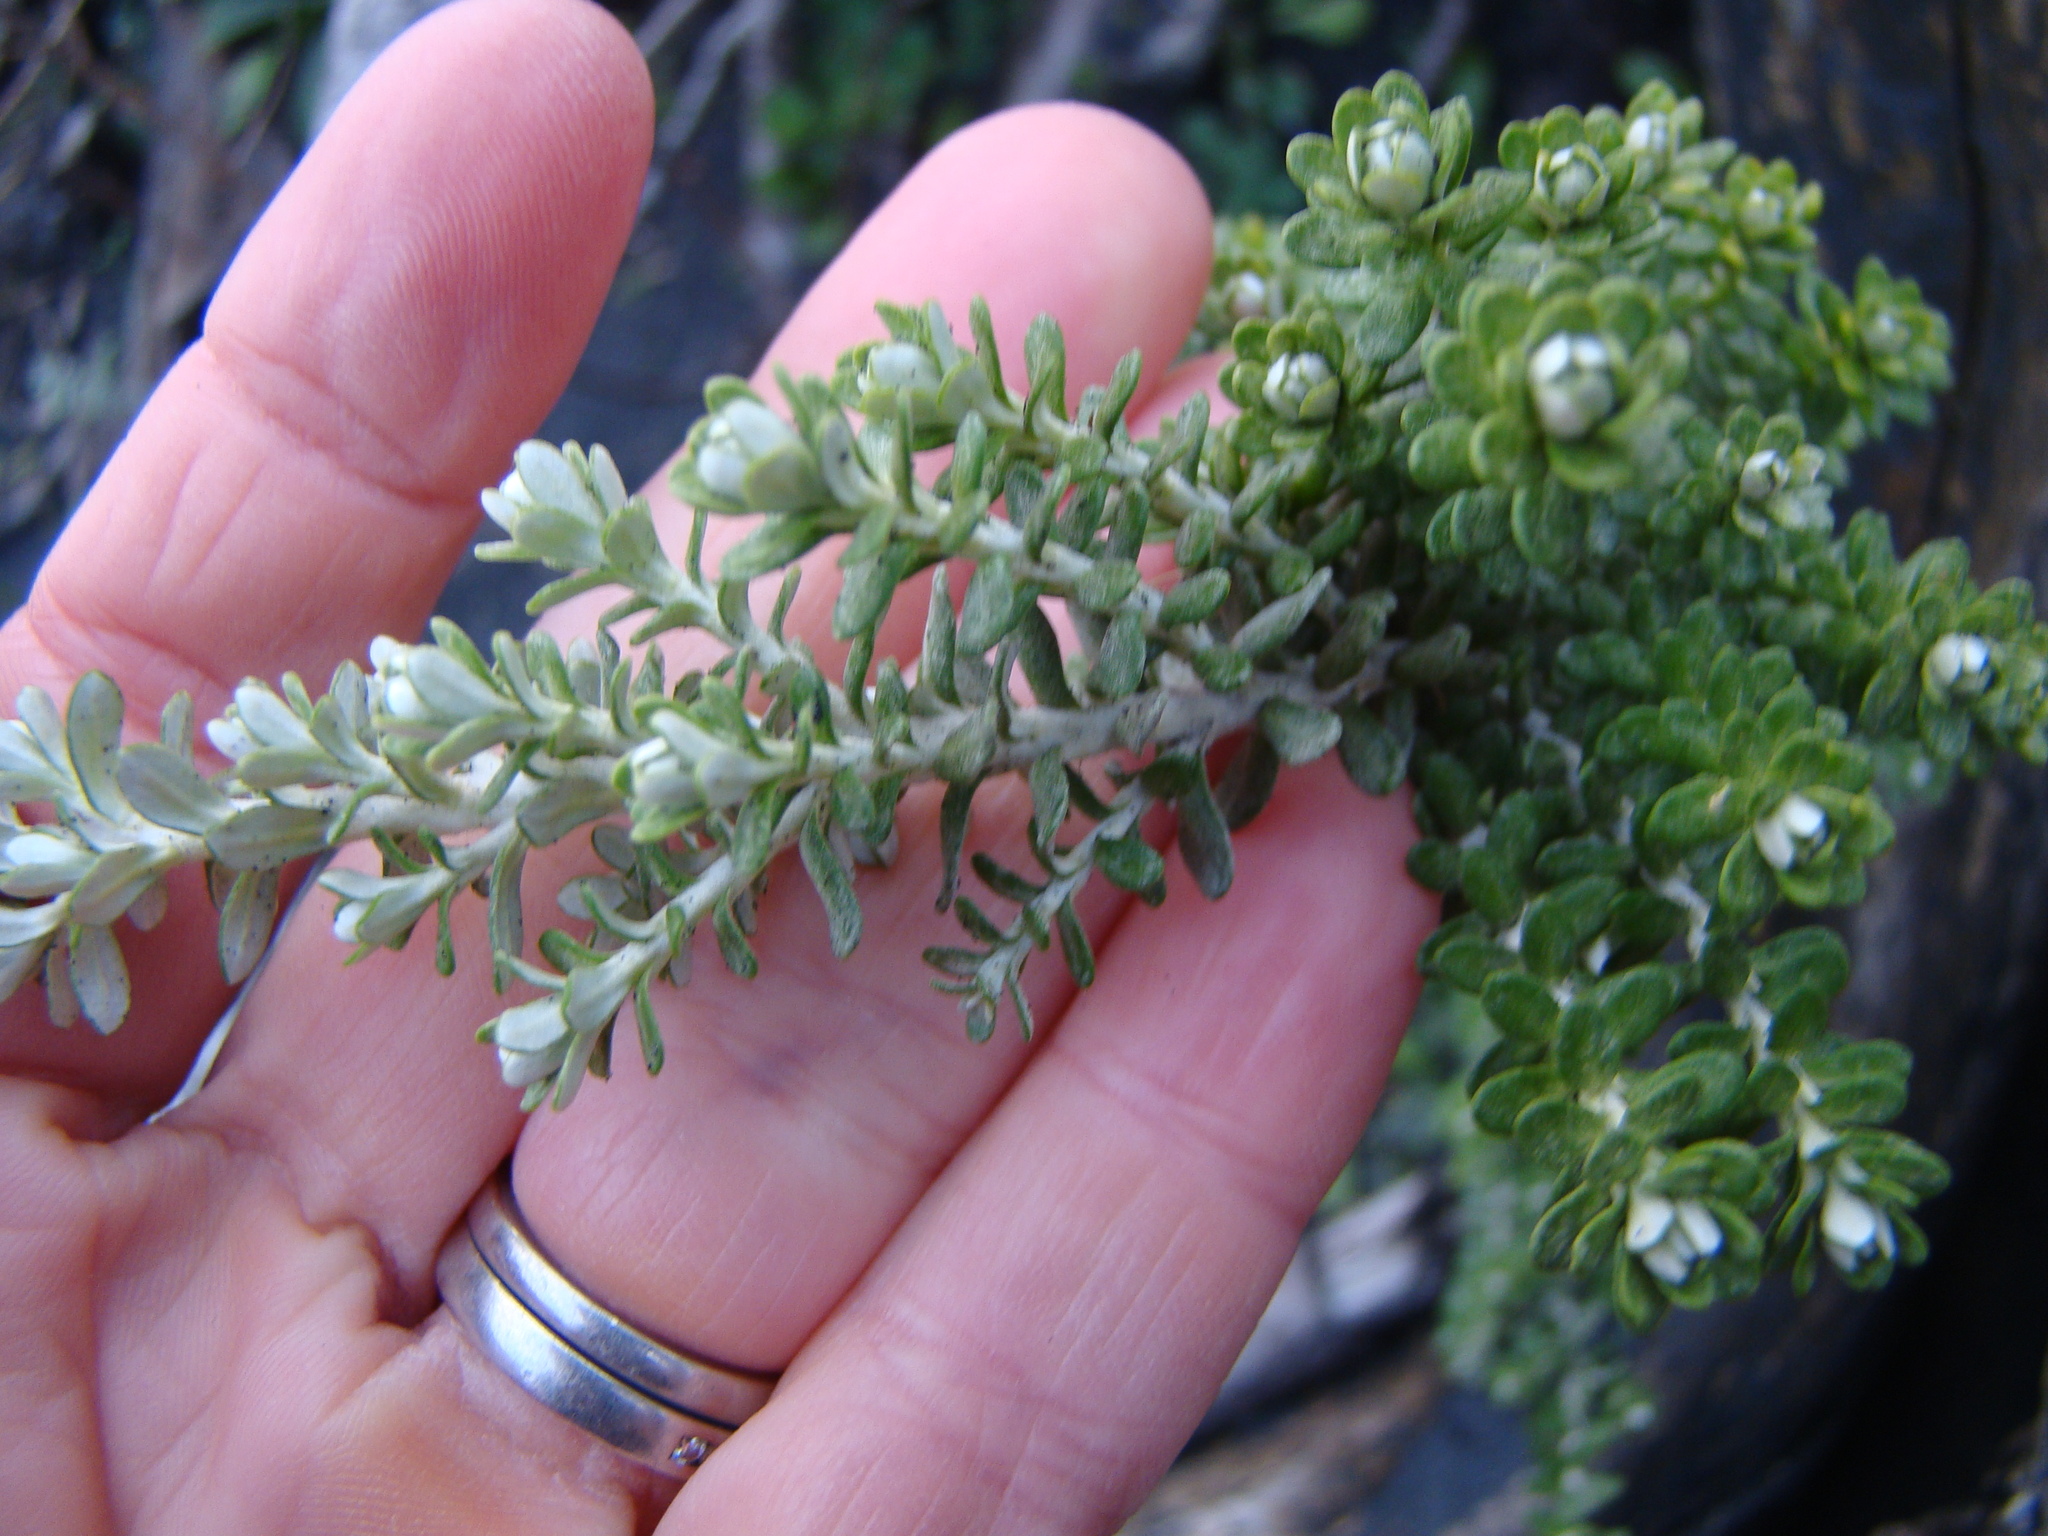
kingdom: Plantae
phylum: Tracheophyta
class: Magnoliopsida
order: Asterales
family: Asteraceae
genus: Ozothamnus
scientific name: Ozothamnus leptophyllus
